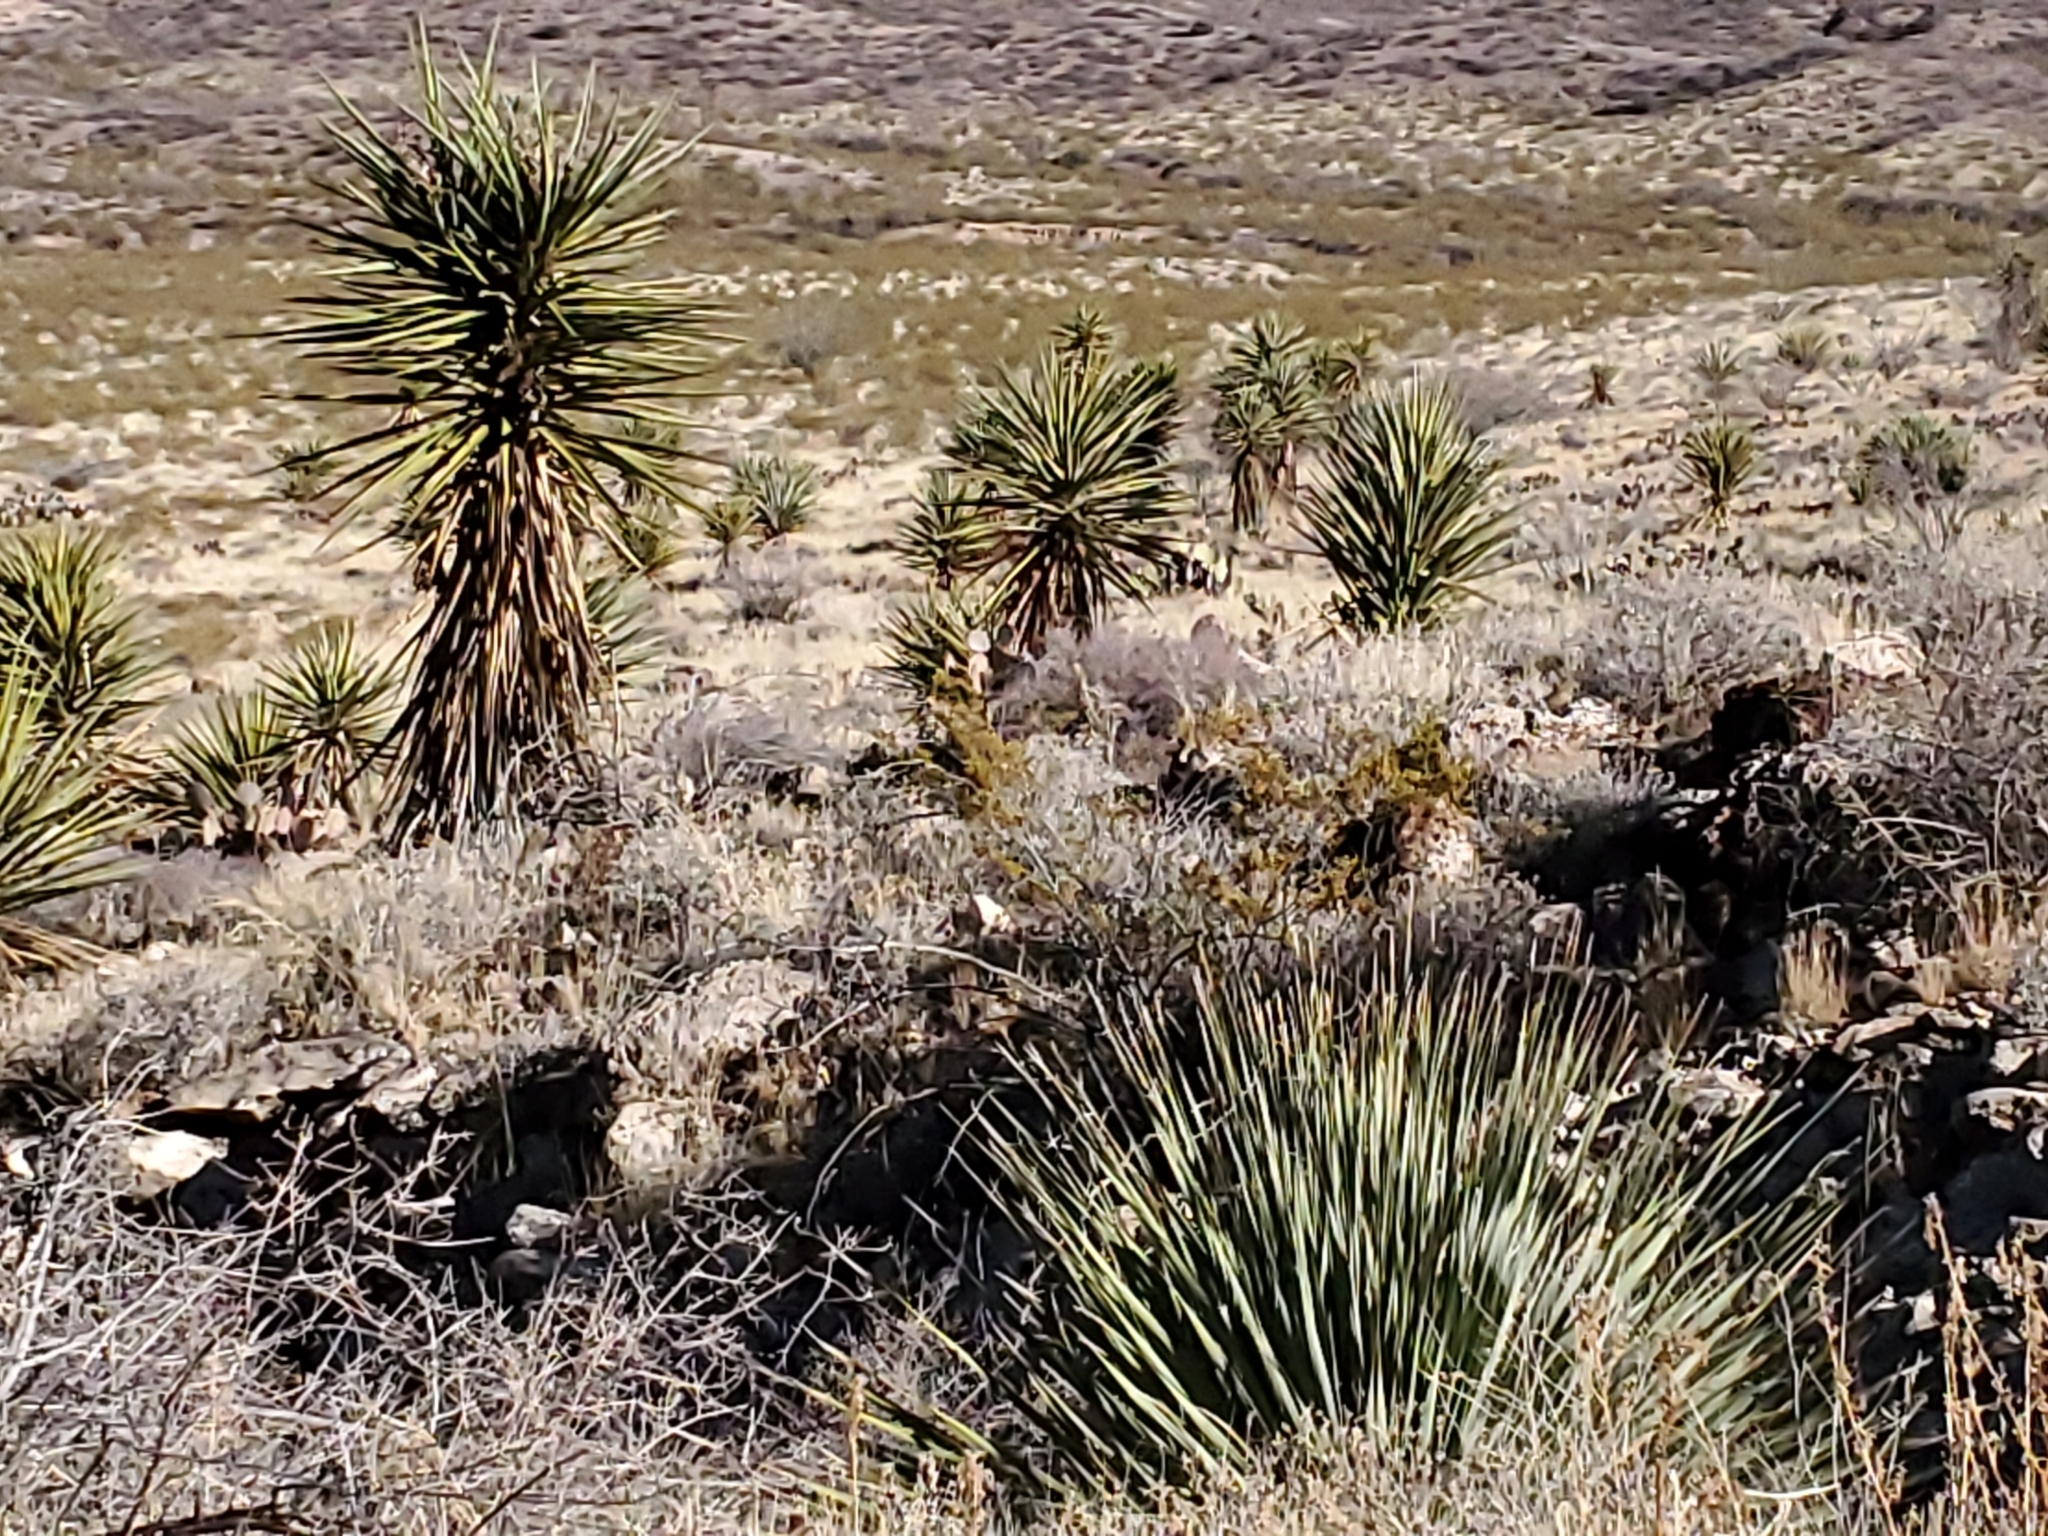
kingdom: Plantae
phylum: Tracheophyta
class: Liliopsida
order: Asparagales
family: Asparagaceae
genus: Yucca
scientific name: Yucca treculiana
